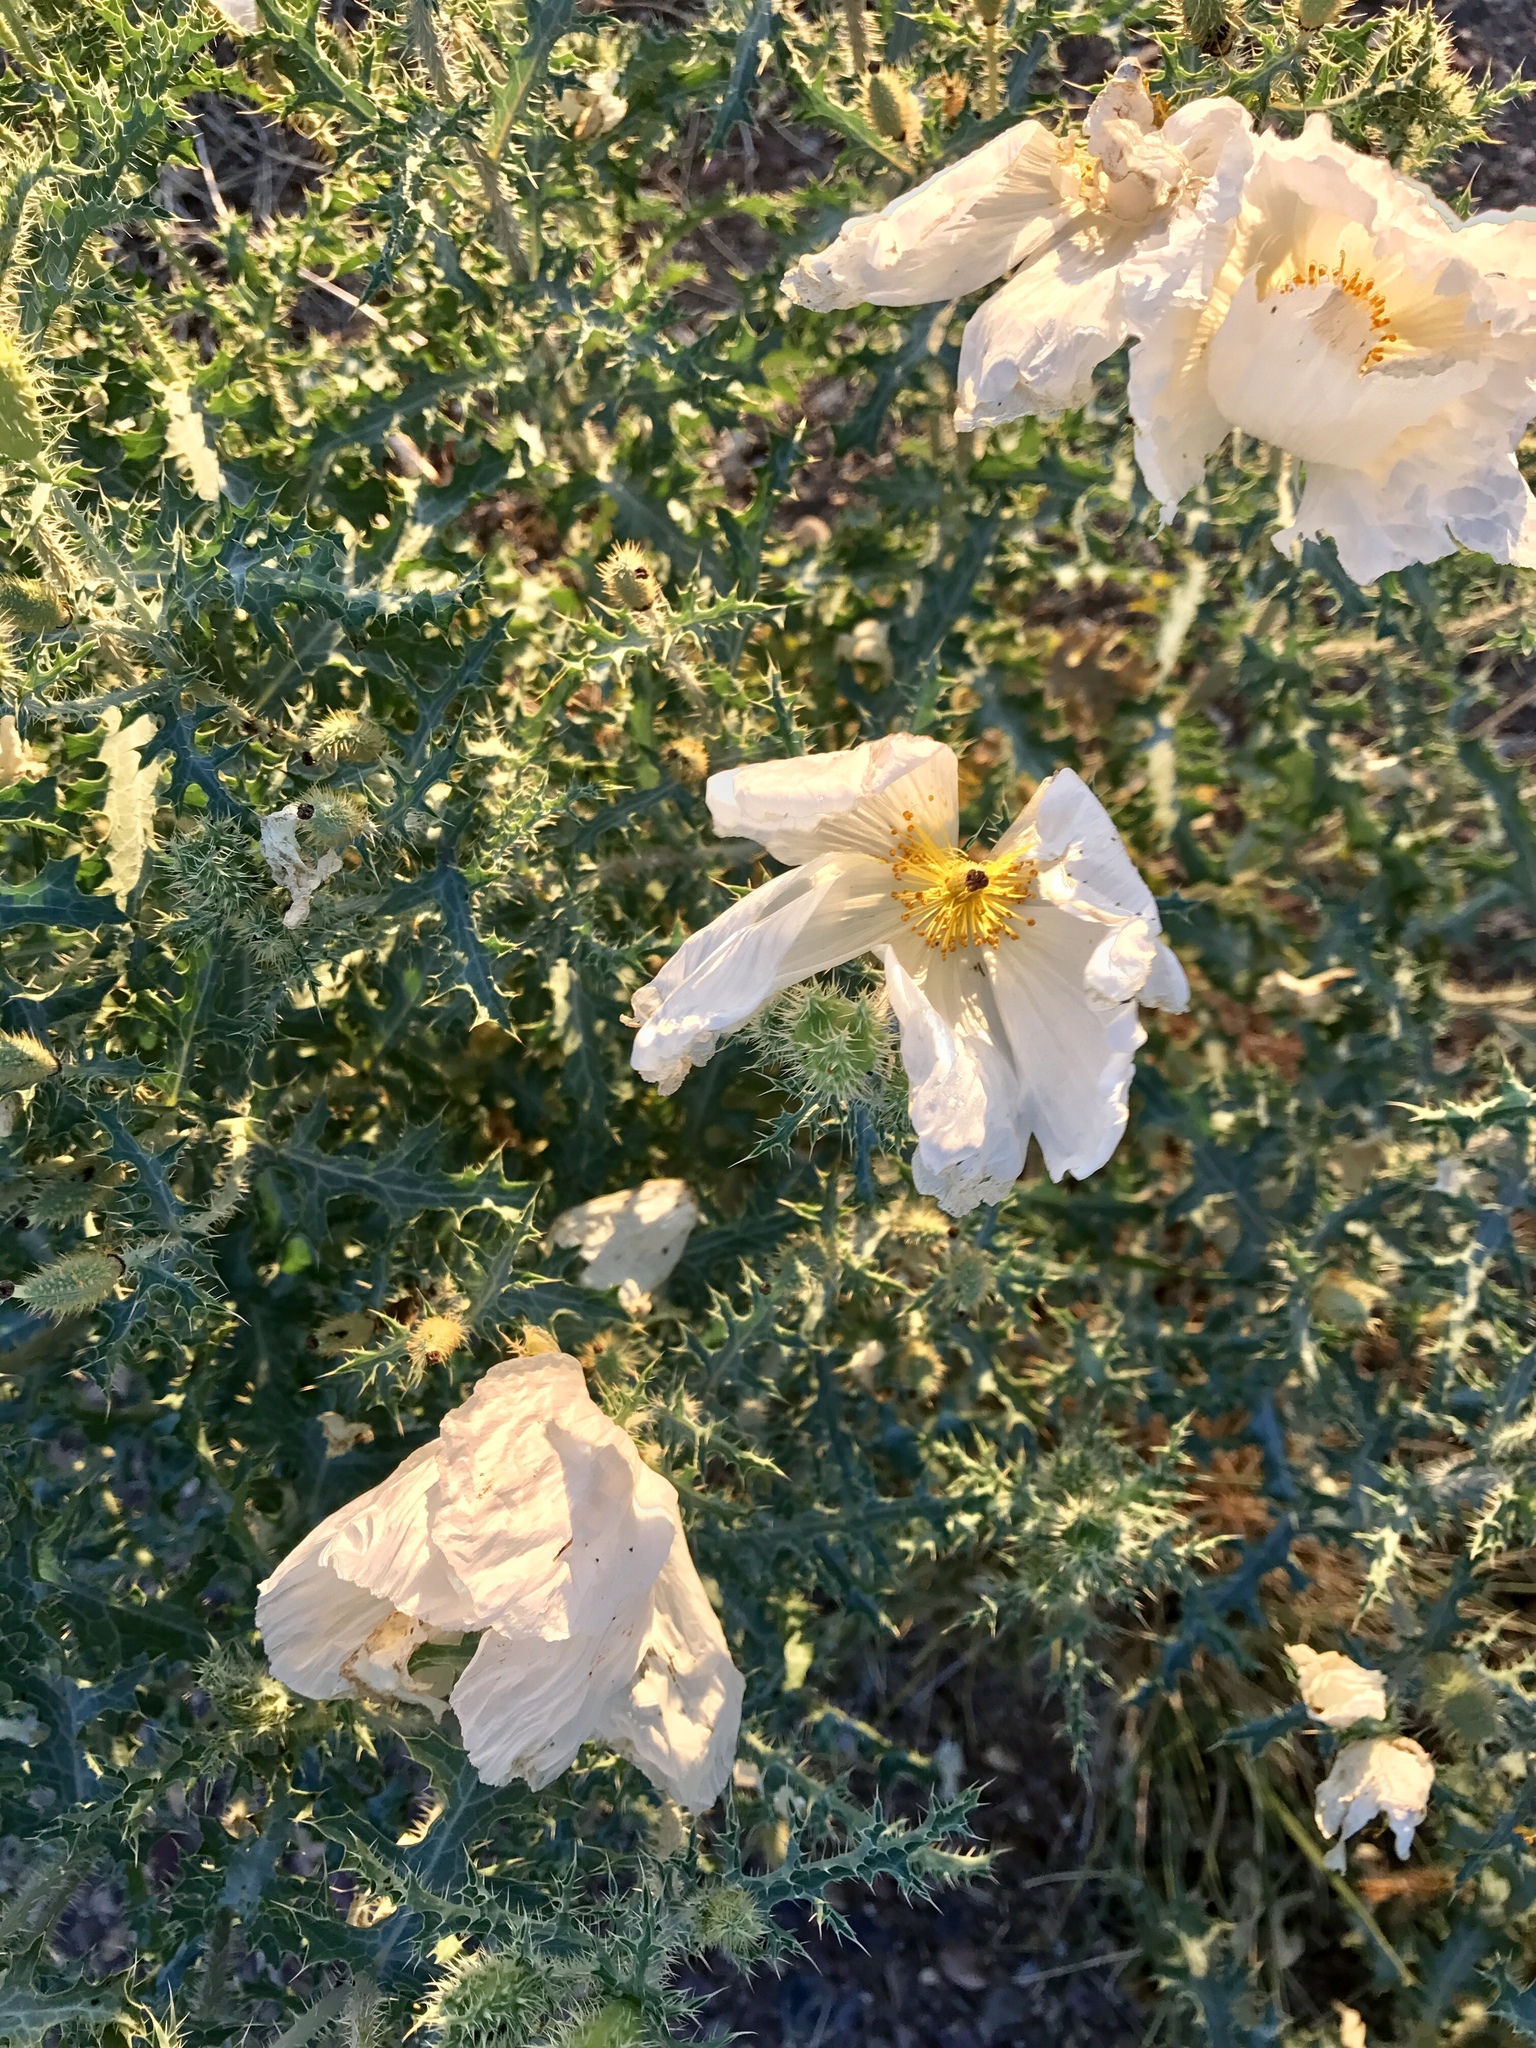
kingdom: Plantae
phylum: Tracheophyta
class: Magnoliopsida
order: Ranunculales
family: Papaveraceae
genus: Argemone
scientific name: Argemone pleiacantha
